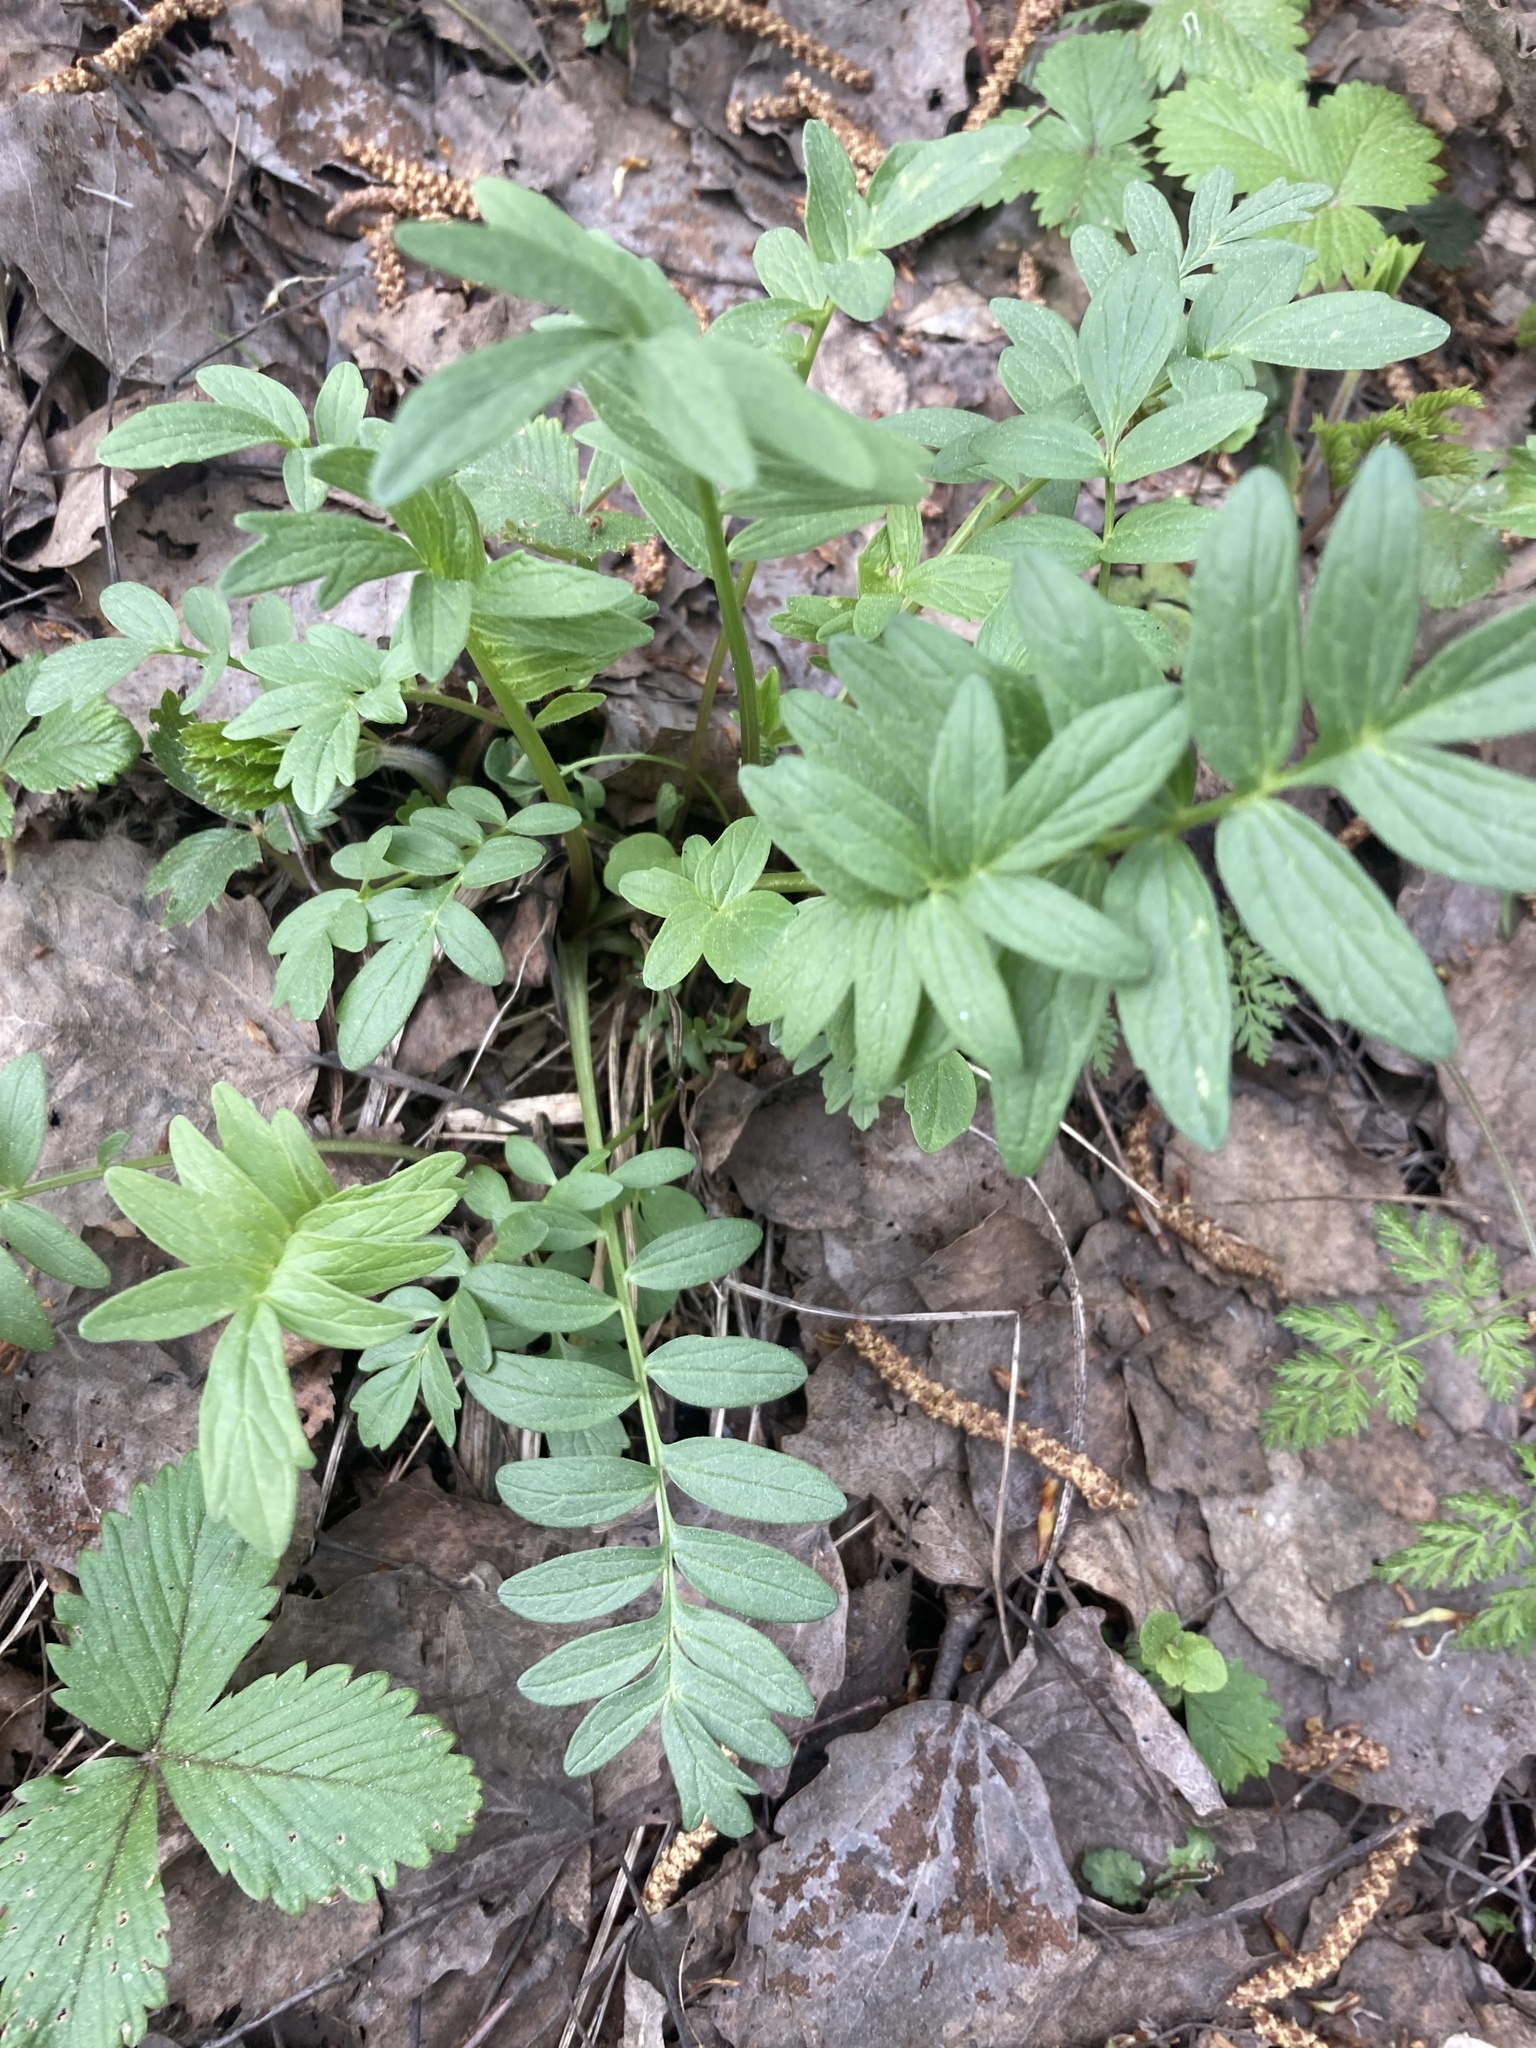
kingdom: Plantae
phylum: Tracheophyta
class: Magnoliopsida
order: Dipsacales
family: Caprifoliaceae
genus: Valeriana
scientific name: Valeriana officinalis
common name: Common valerian
